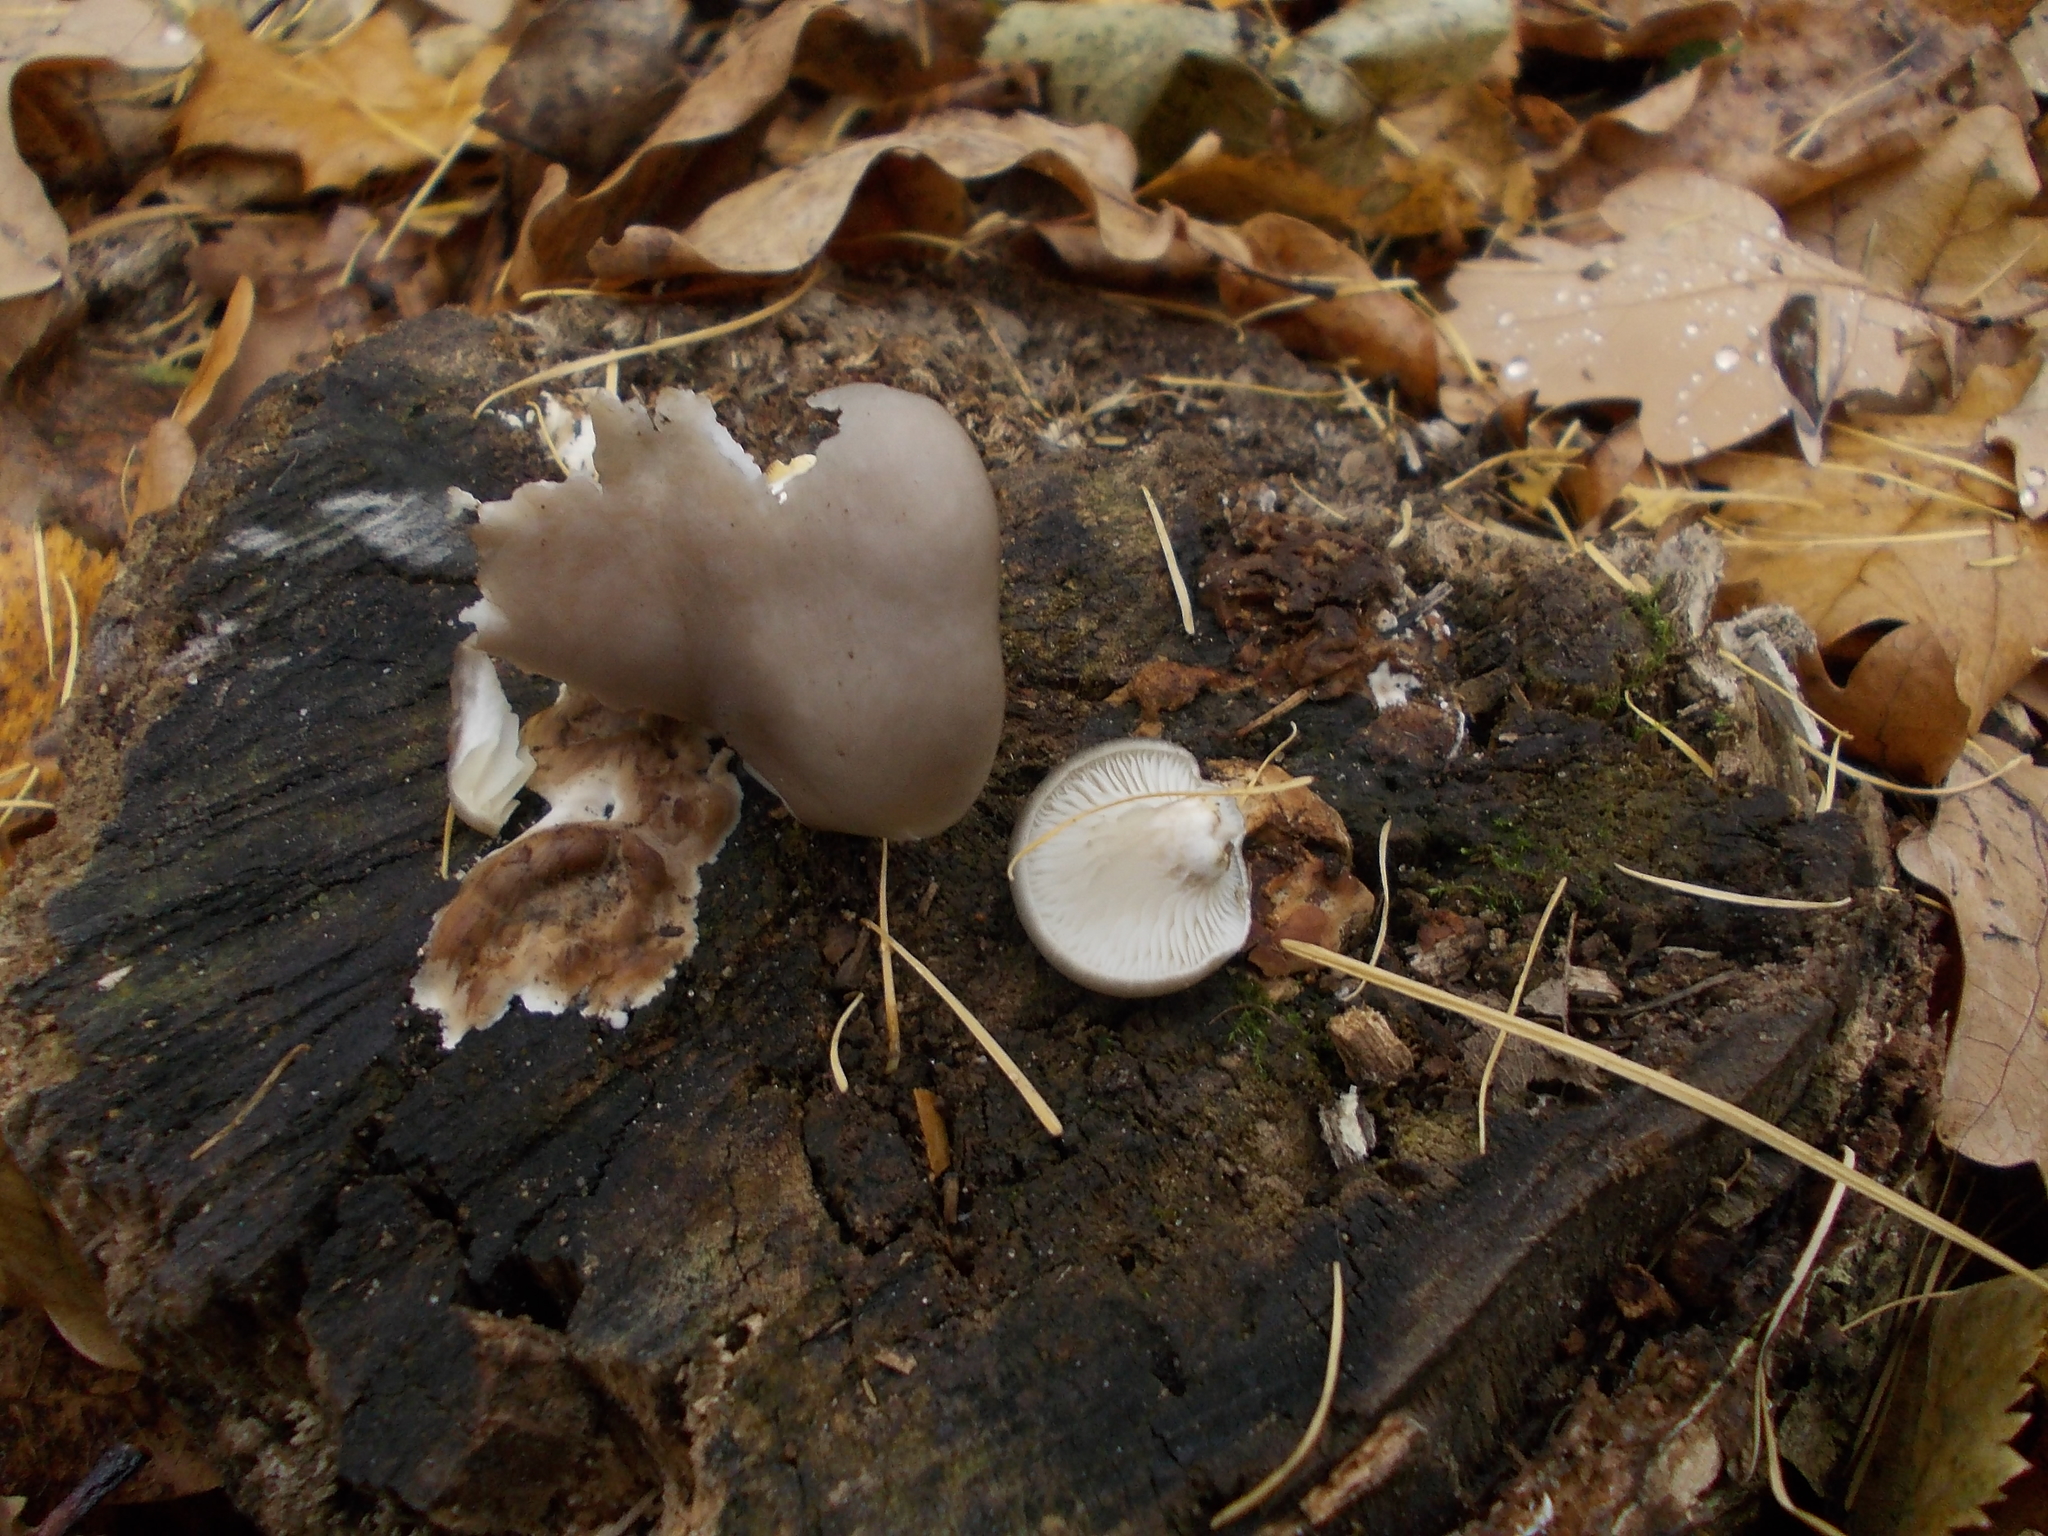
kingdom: Fungi
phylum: Basidiomycota
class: Agaricomycetes
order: Agaricales
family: Pleurotaceae
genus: Pleurotus
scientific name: Pleurotus ostreatus
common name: Oyster mushroom
